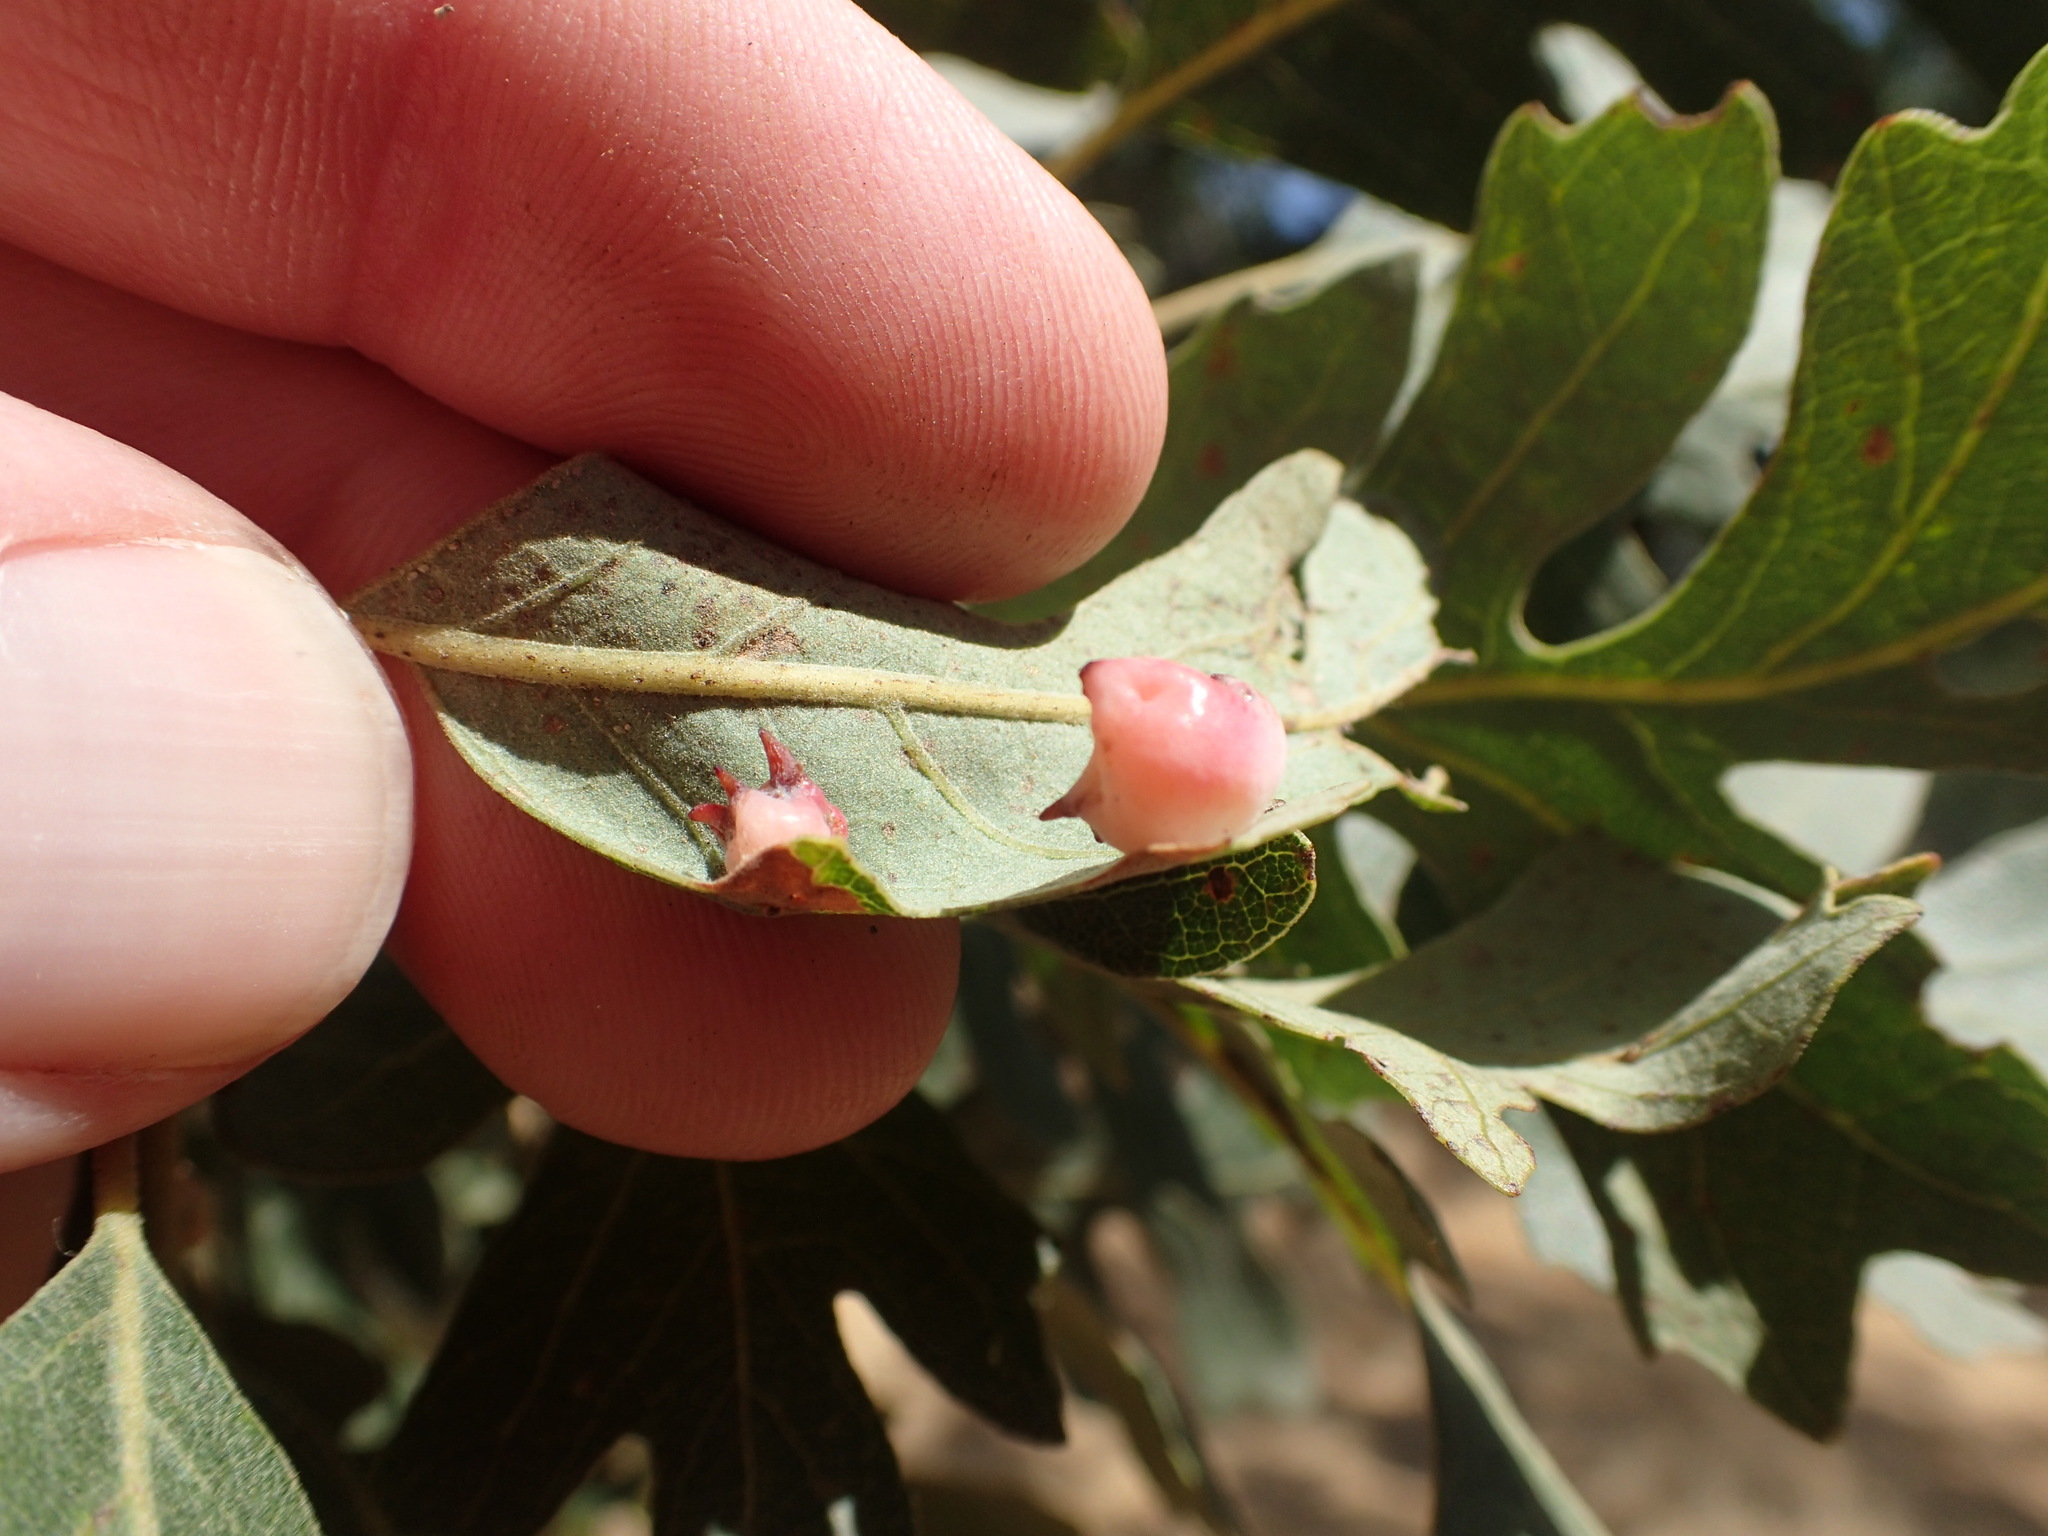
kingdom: Animalia
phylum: Arthropoda
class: Insecta
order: Hymenoptera
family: Cynipidae
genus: Cynips
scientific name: Cynips douglasi
